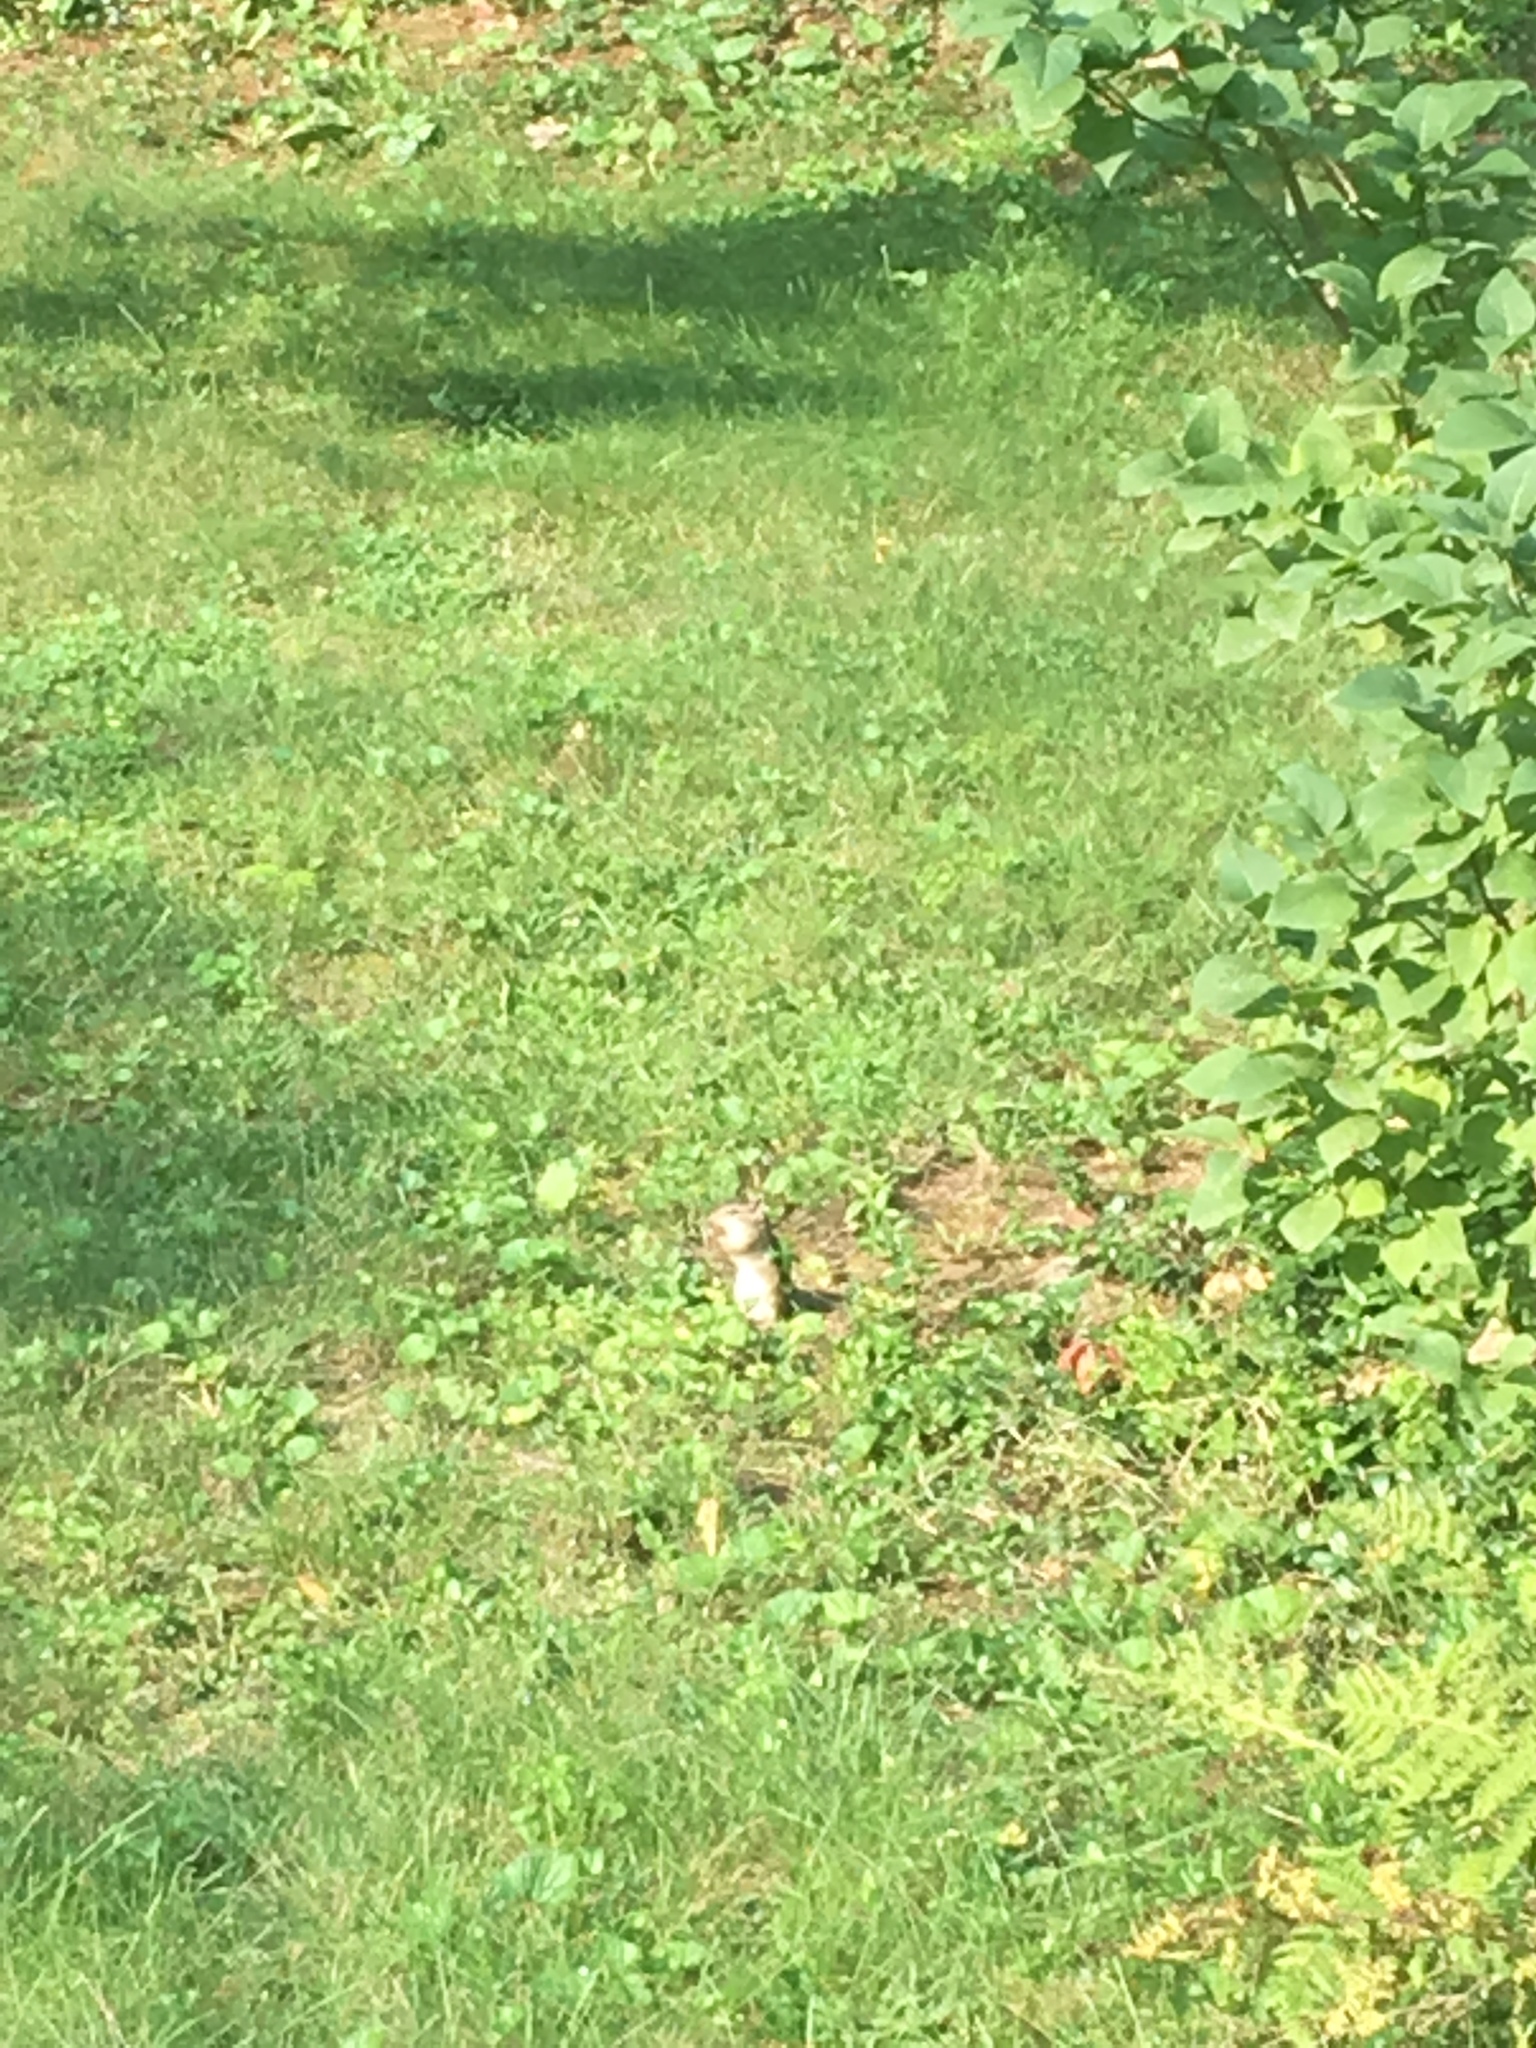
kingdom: Animalia
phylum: Chordata
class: Mammalia
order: Rodentia
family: Sciuridae
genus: Tamias
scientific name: Tamias striatus
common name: Eastern chipmunk
